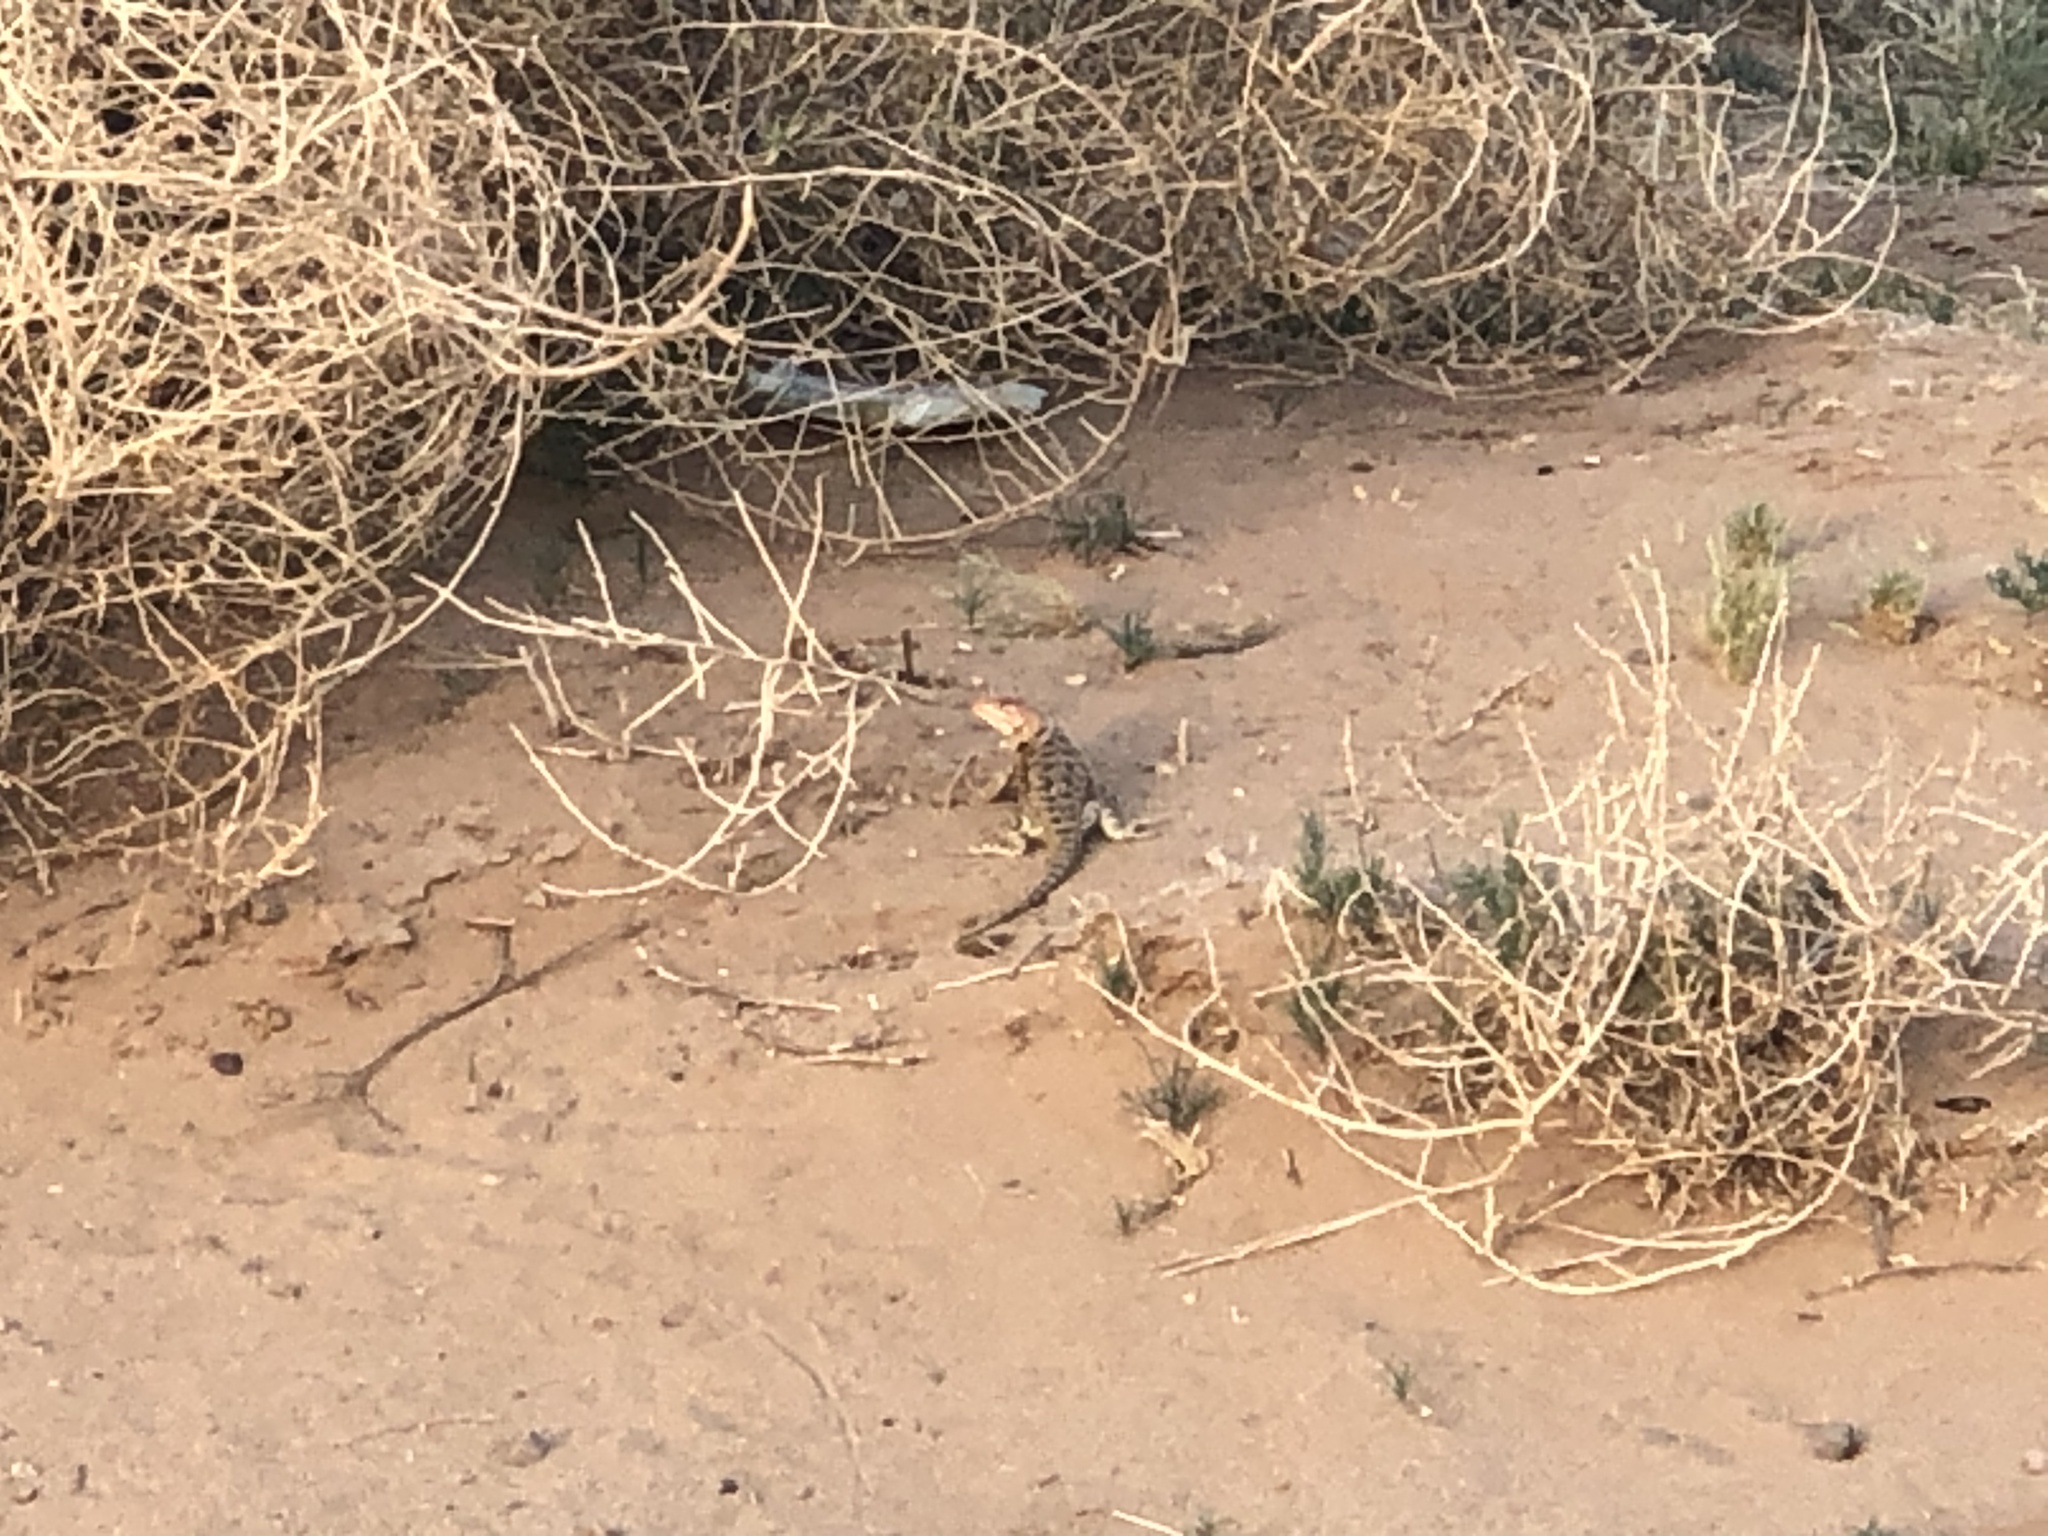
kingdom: Animalia
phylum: Chordata
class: Squamata
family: Phrynosomatidae
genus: Sceloporus
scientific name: Sceloporus bimaculosus
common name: Twin-spotted spiny lizard
